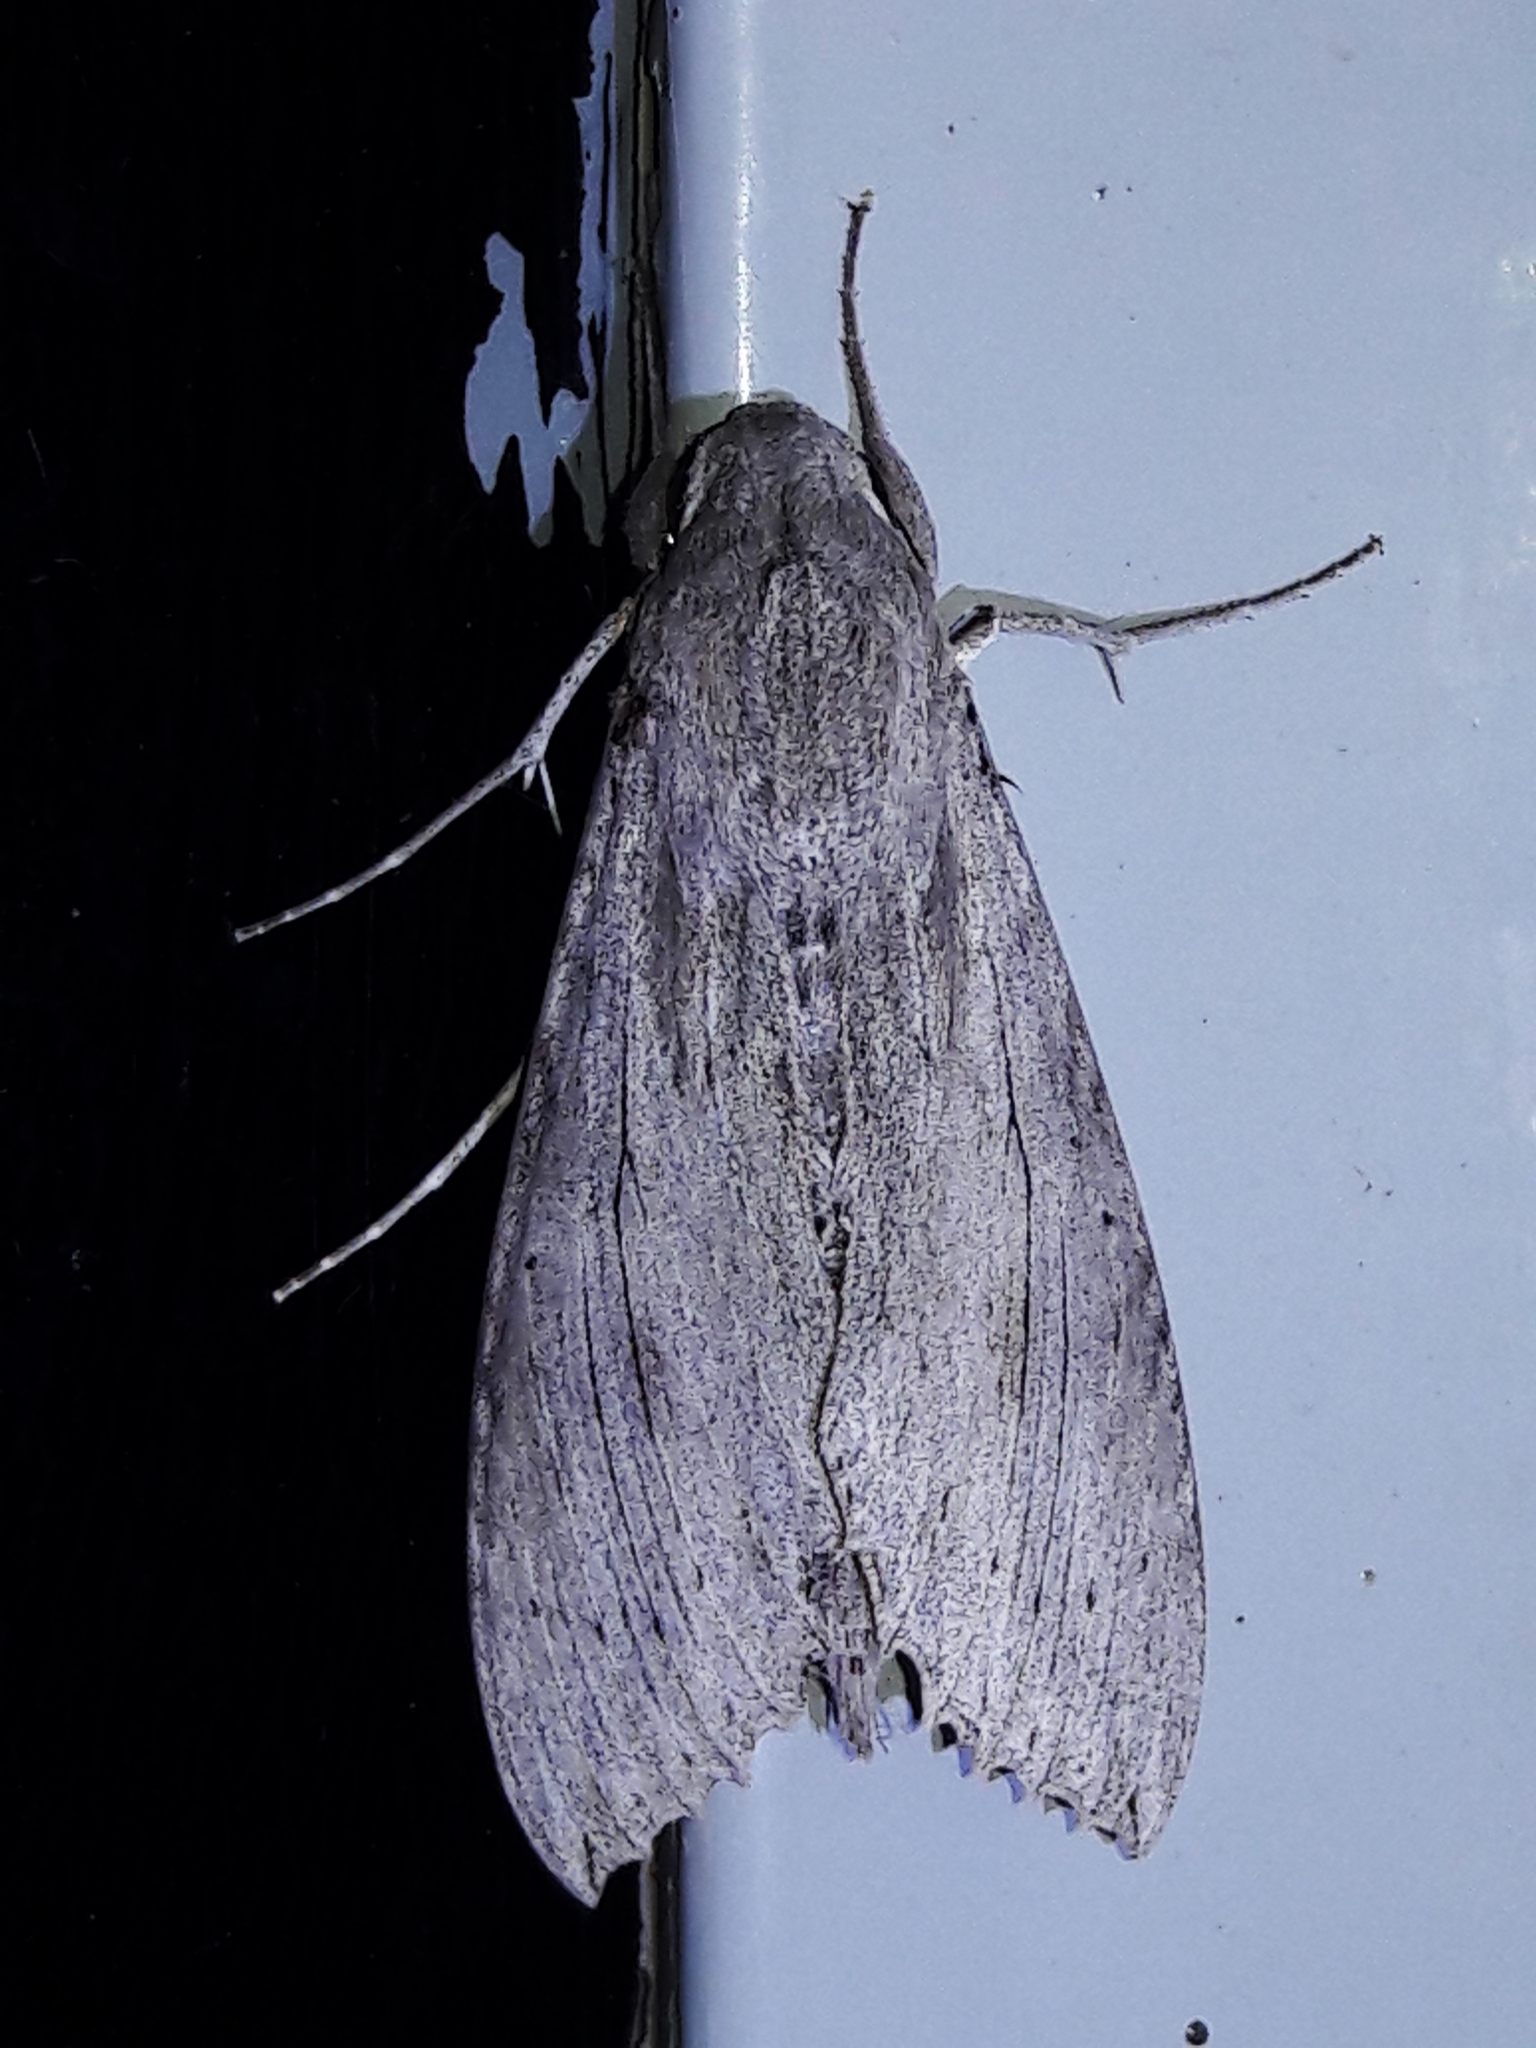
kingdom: Animalia
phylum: Arthropoda
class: Insecta
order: Lepidoptera
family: Sphingidae
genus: Erinnyis
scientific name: Erinnyis ello
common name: Ello sphinx
